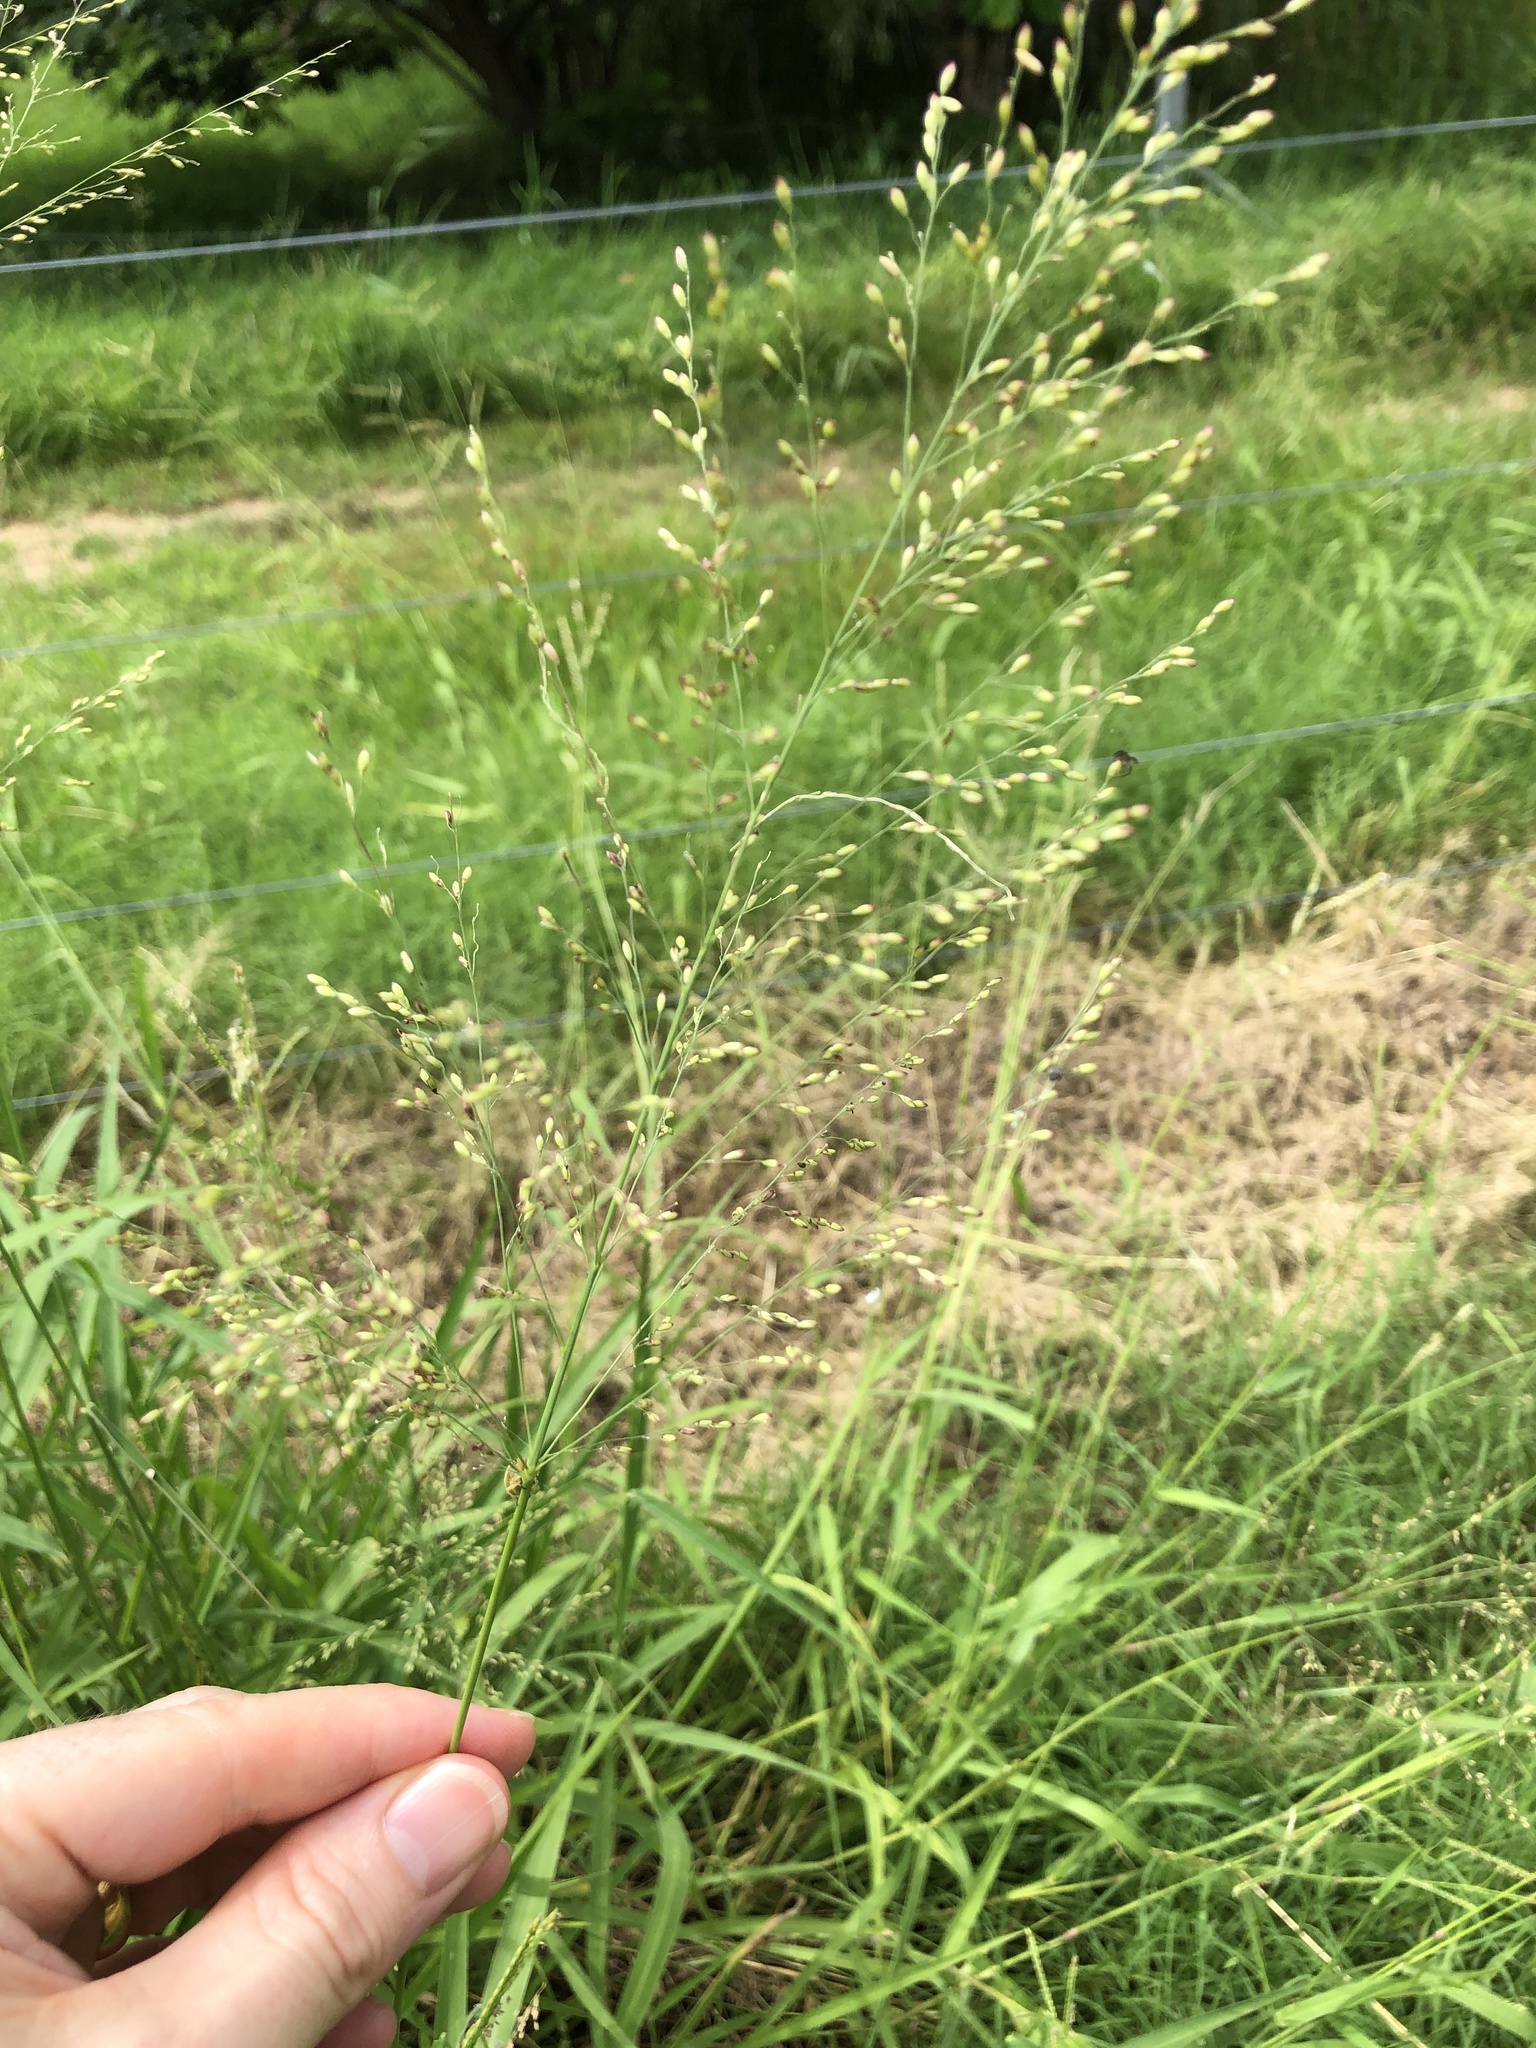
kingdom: Plantae
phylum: Tracheophyta
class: Liliopsida
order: Poales
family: Poaceae
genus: Megathyrsus
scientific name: Megathyrsus maximus
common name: Guineagrass
